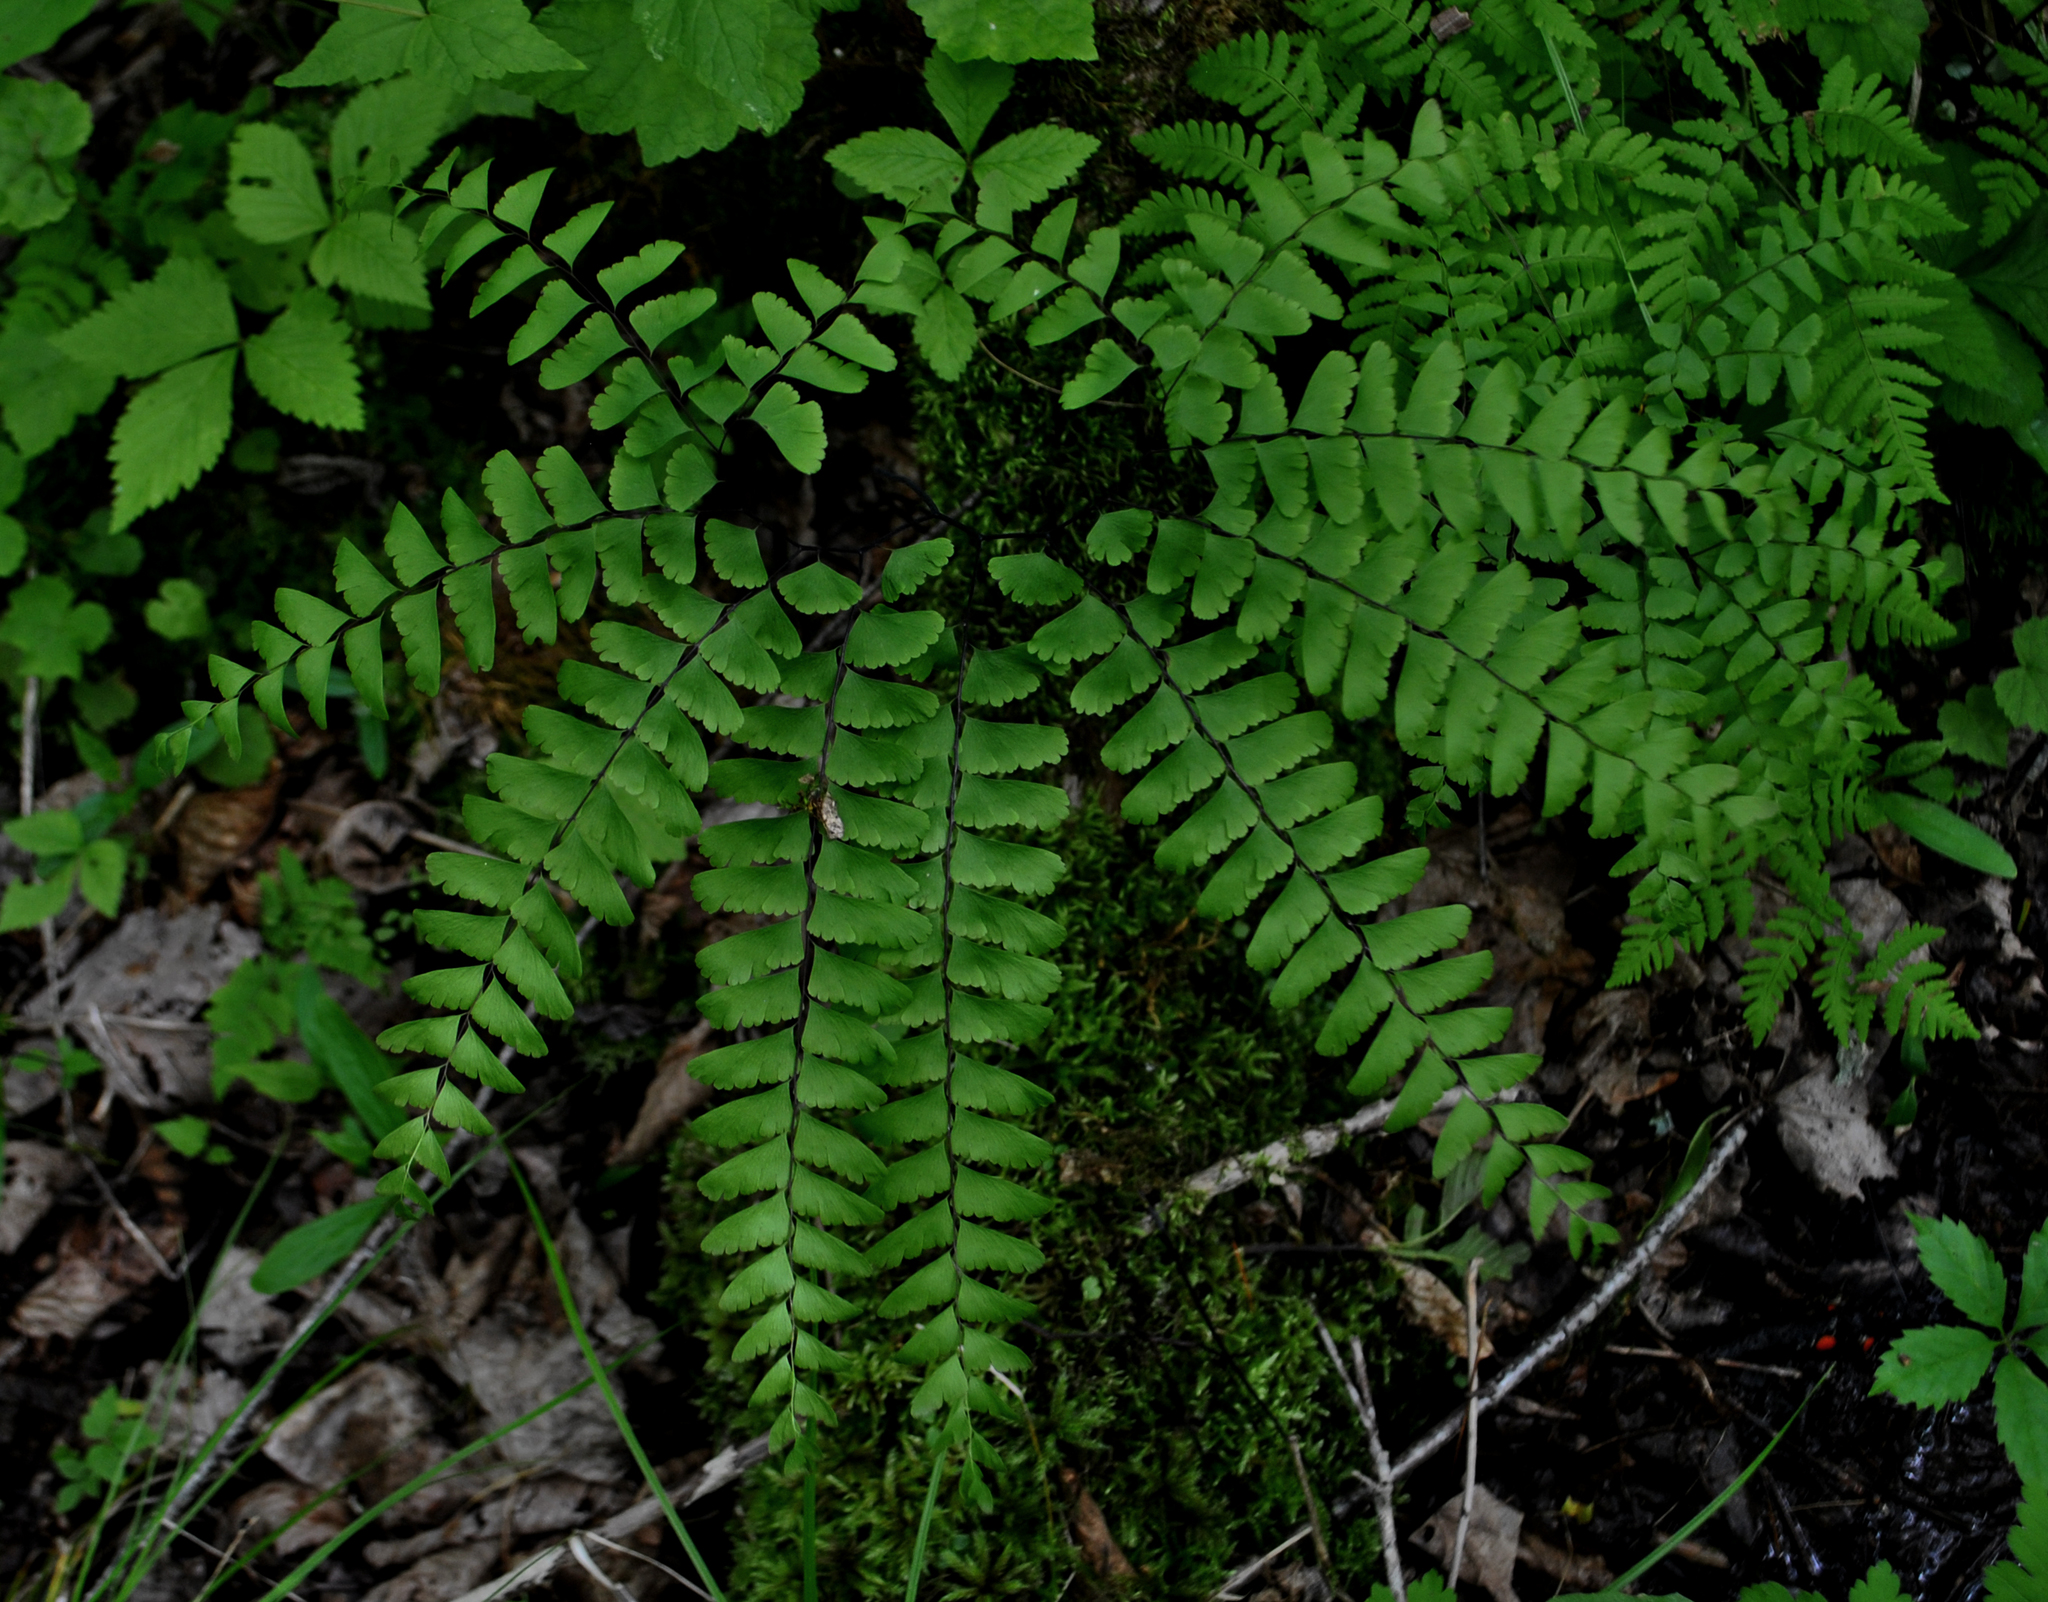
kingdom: Plantae
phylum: Tracheophyta
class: Polypodiopsida
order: Polypodiales
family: Pteridaceae
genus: Adiantum
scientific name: Adiantum pedatum
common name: Five-finger fern
